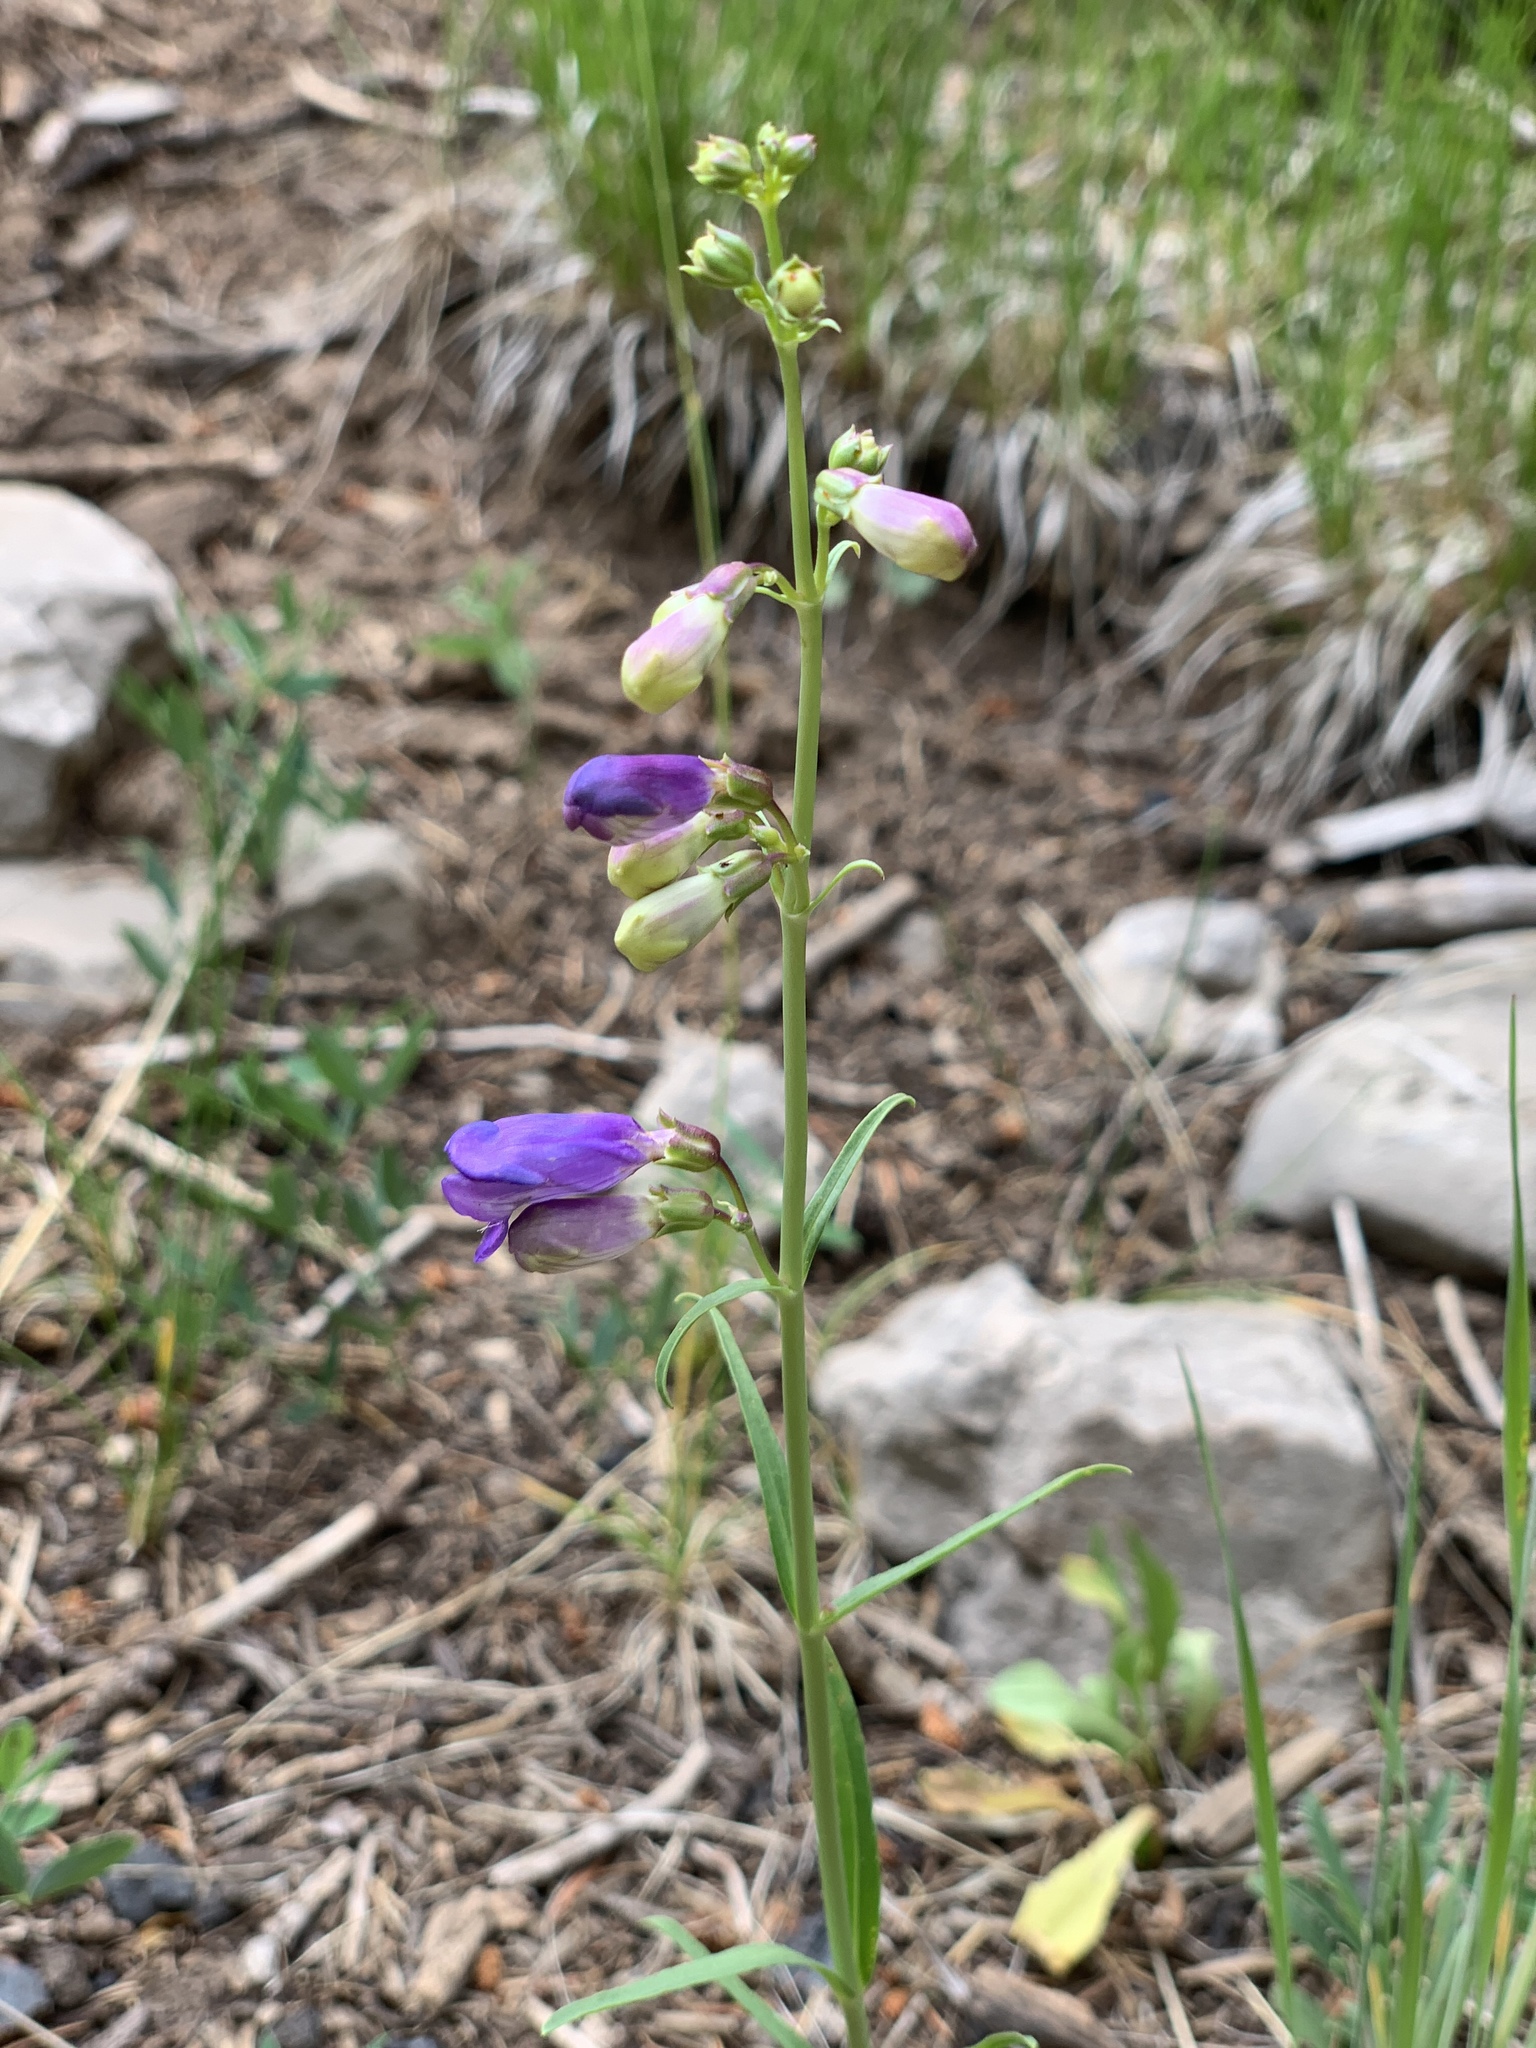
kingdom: Plantae
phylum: Tracheophyta
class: Magnoliopsida
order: Lamiales
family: Plantaginaceae
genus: Penstemon
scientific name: Penstemon neomexicanus
